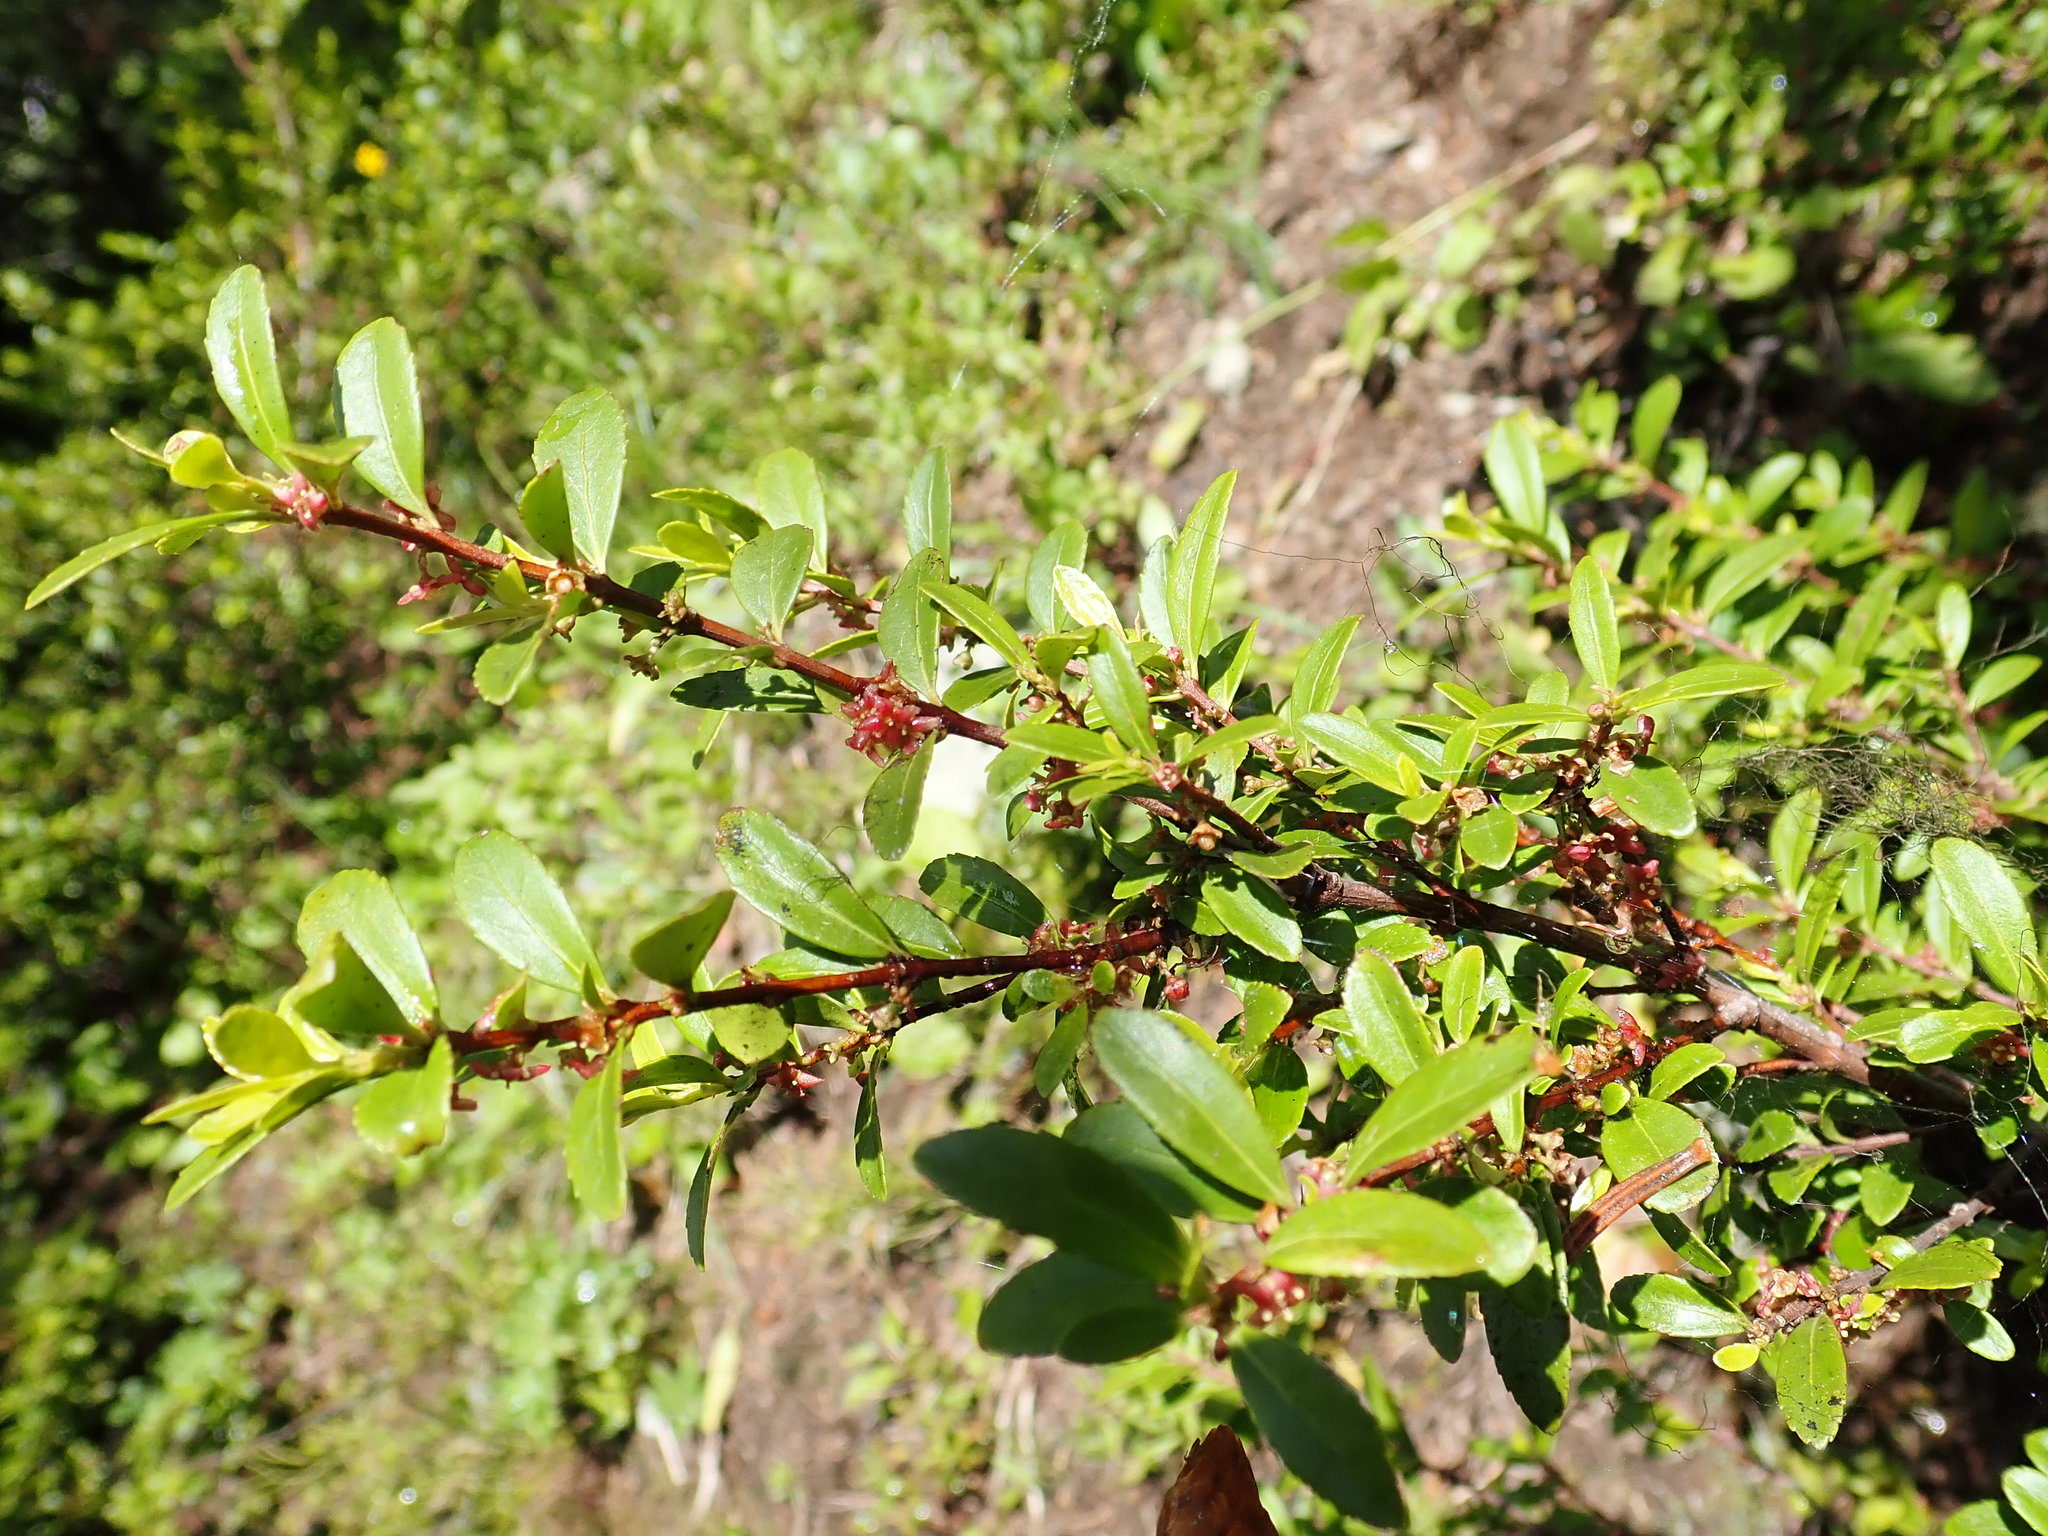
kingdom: Plantae
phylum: Tracheophyta
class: Magnoliopsida
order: Celastrales
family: Celastraceae
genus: Paxistima
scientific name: Paxistima myrsinites
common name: Mountain-lover
